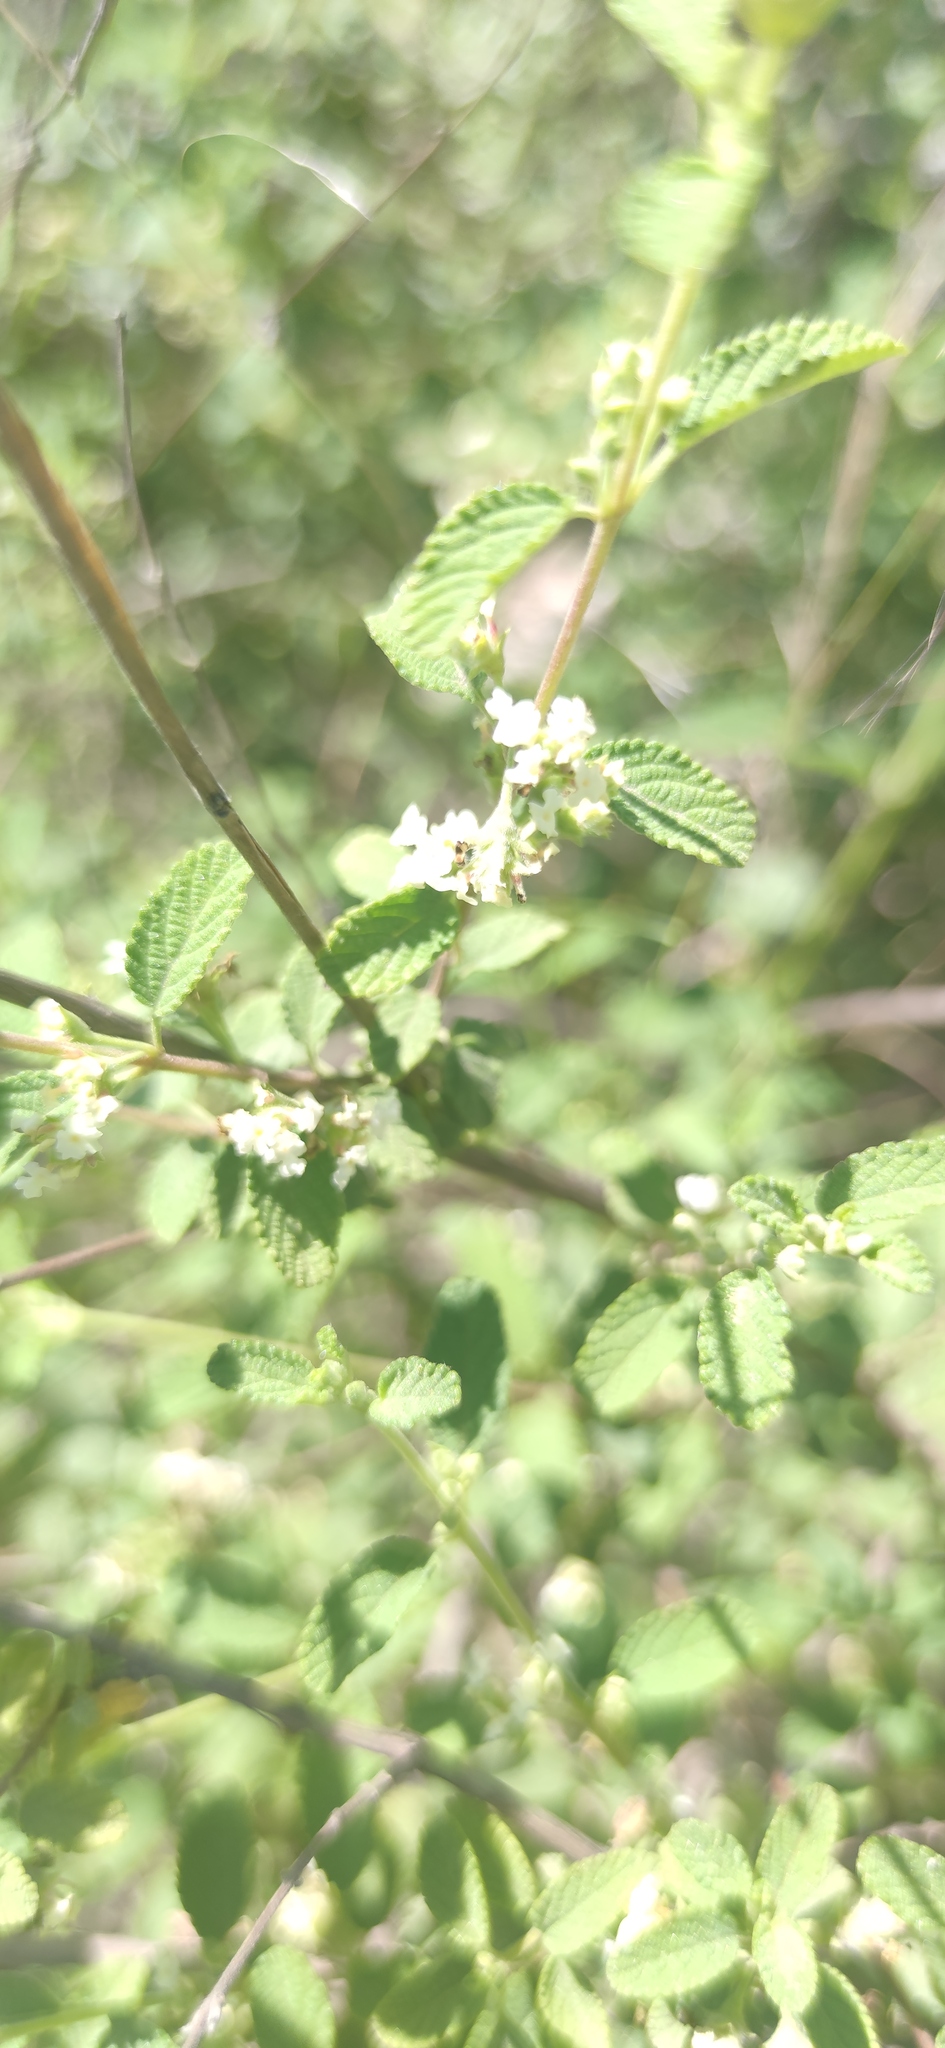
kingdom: Plantae
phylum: Tracheophyta
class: Magnoliopsida
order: Lamiales
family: Verbenaceae
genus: Lippia
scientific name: Lippia origanoides
